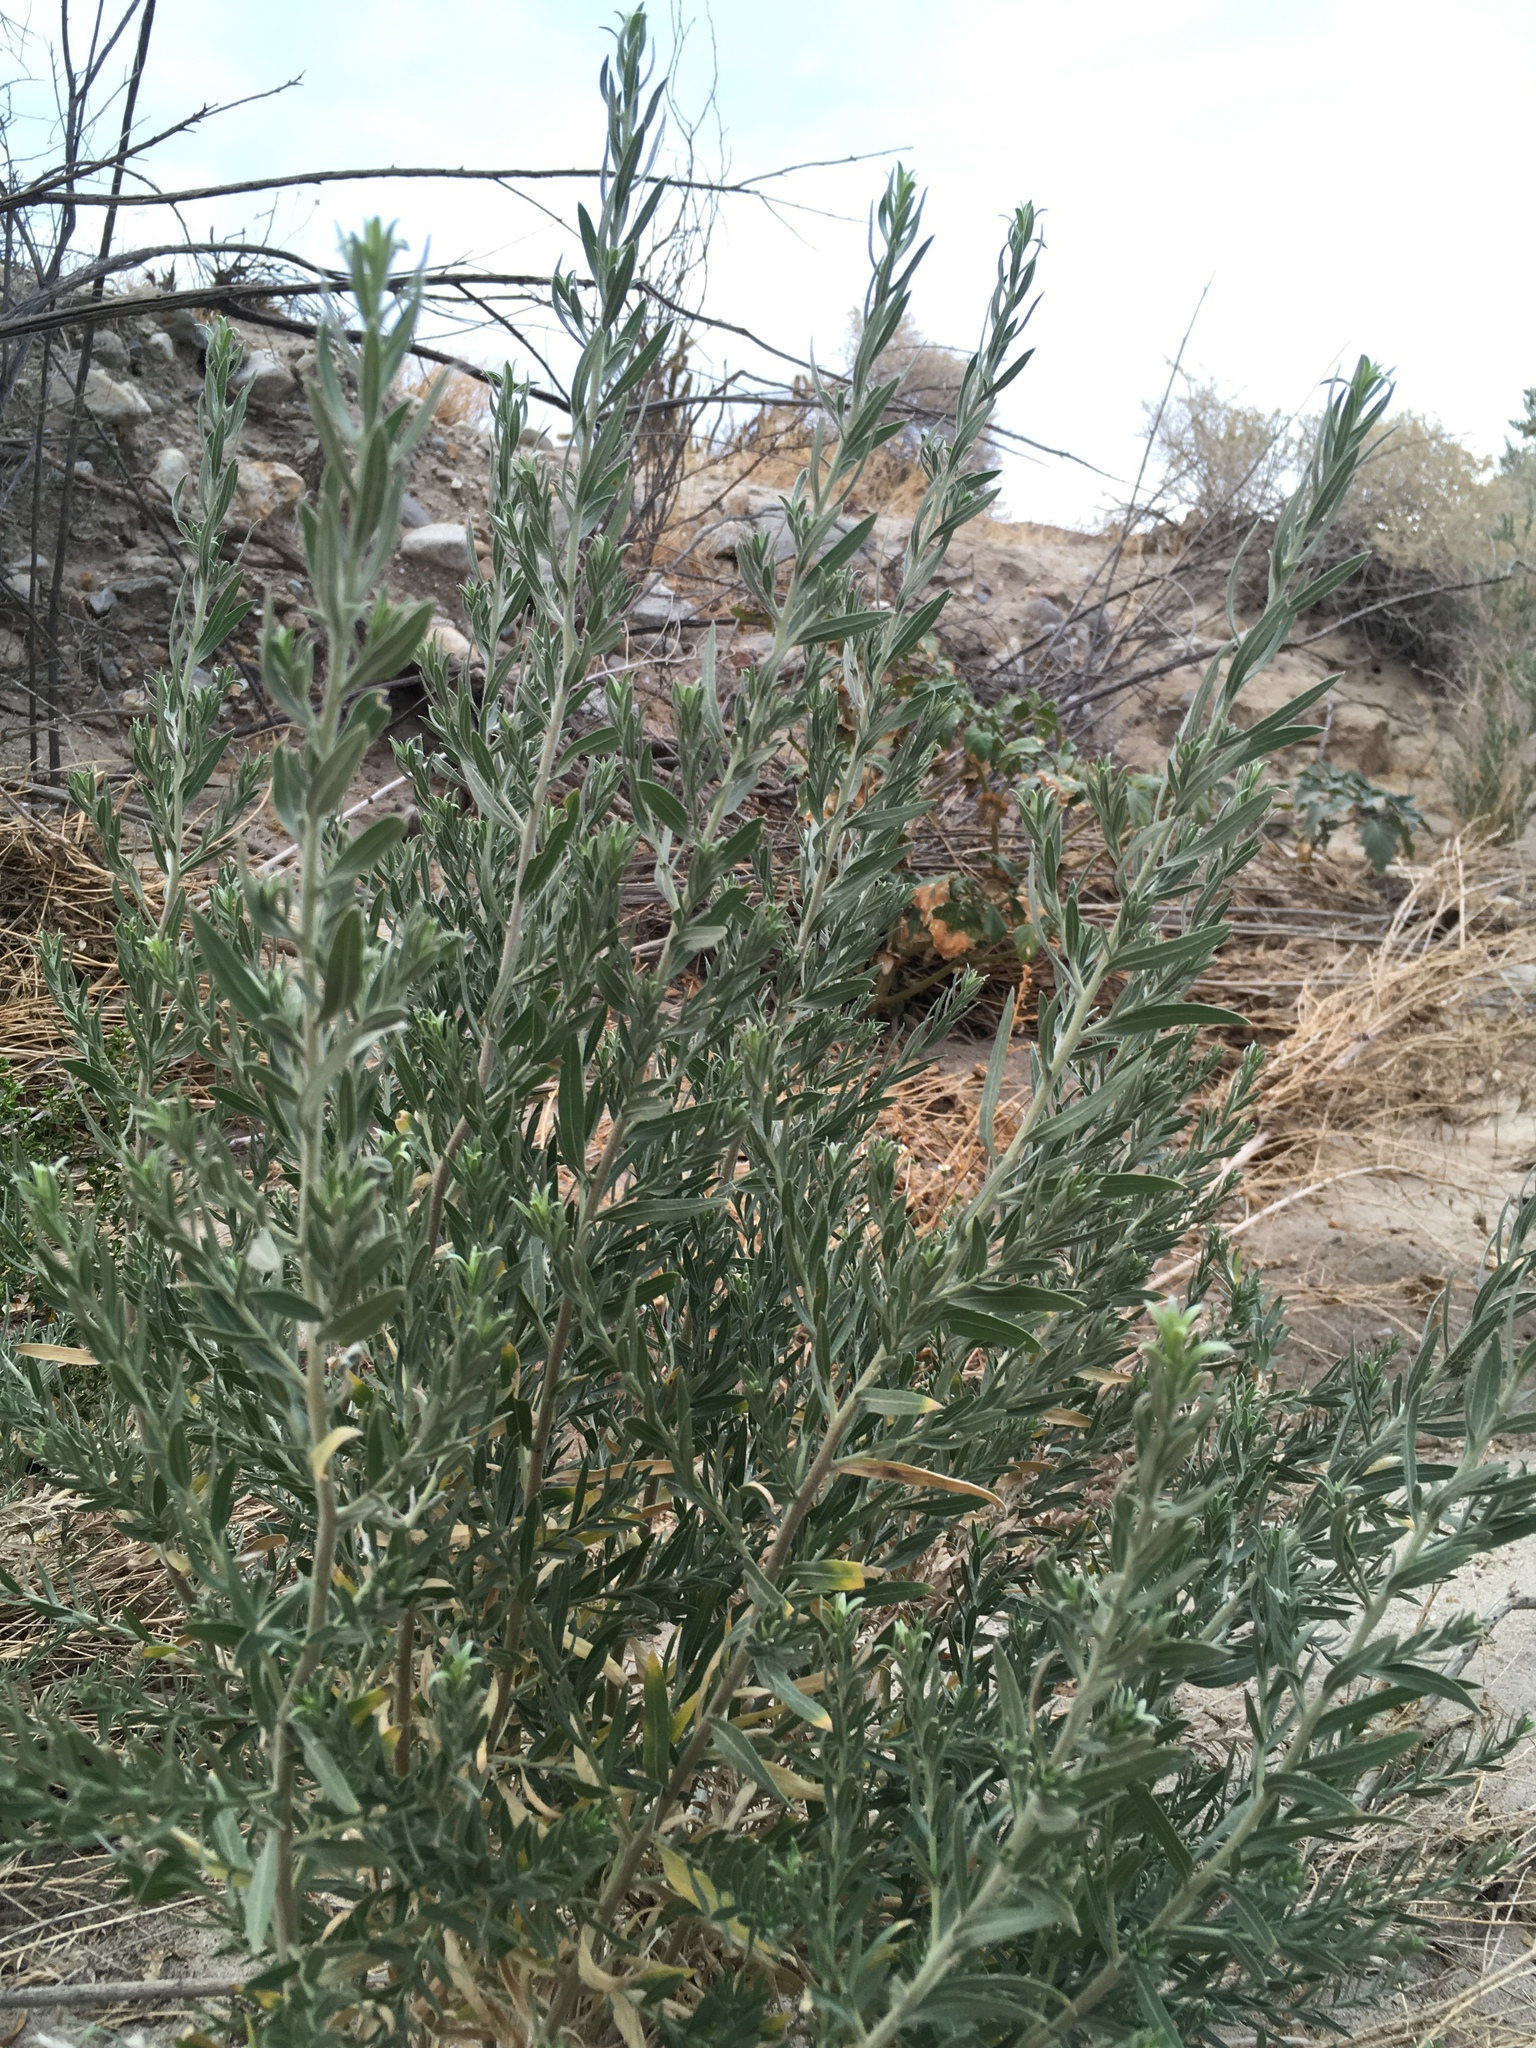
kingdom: Plantae
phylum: Tracheophyta
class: Magnoliopsida
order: Asterales
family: Asteraceae
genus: Pluchea
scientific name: Pluchea sericea
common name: Arrow-weed
